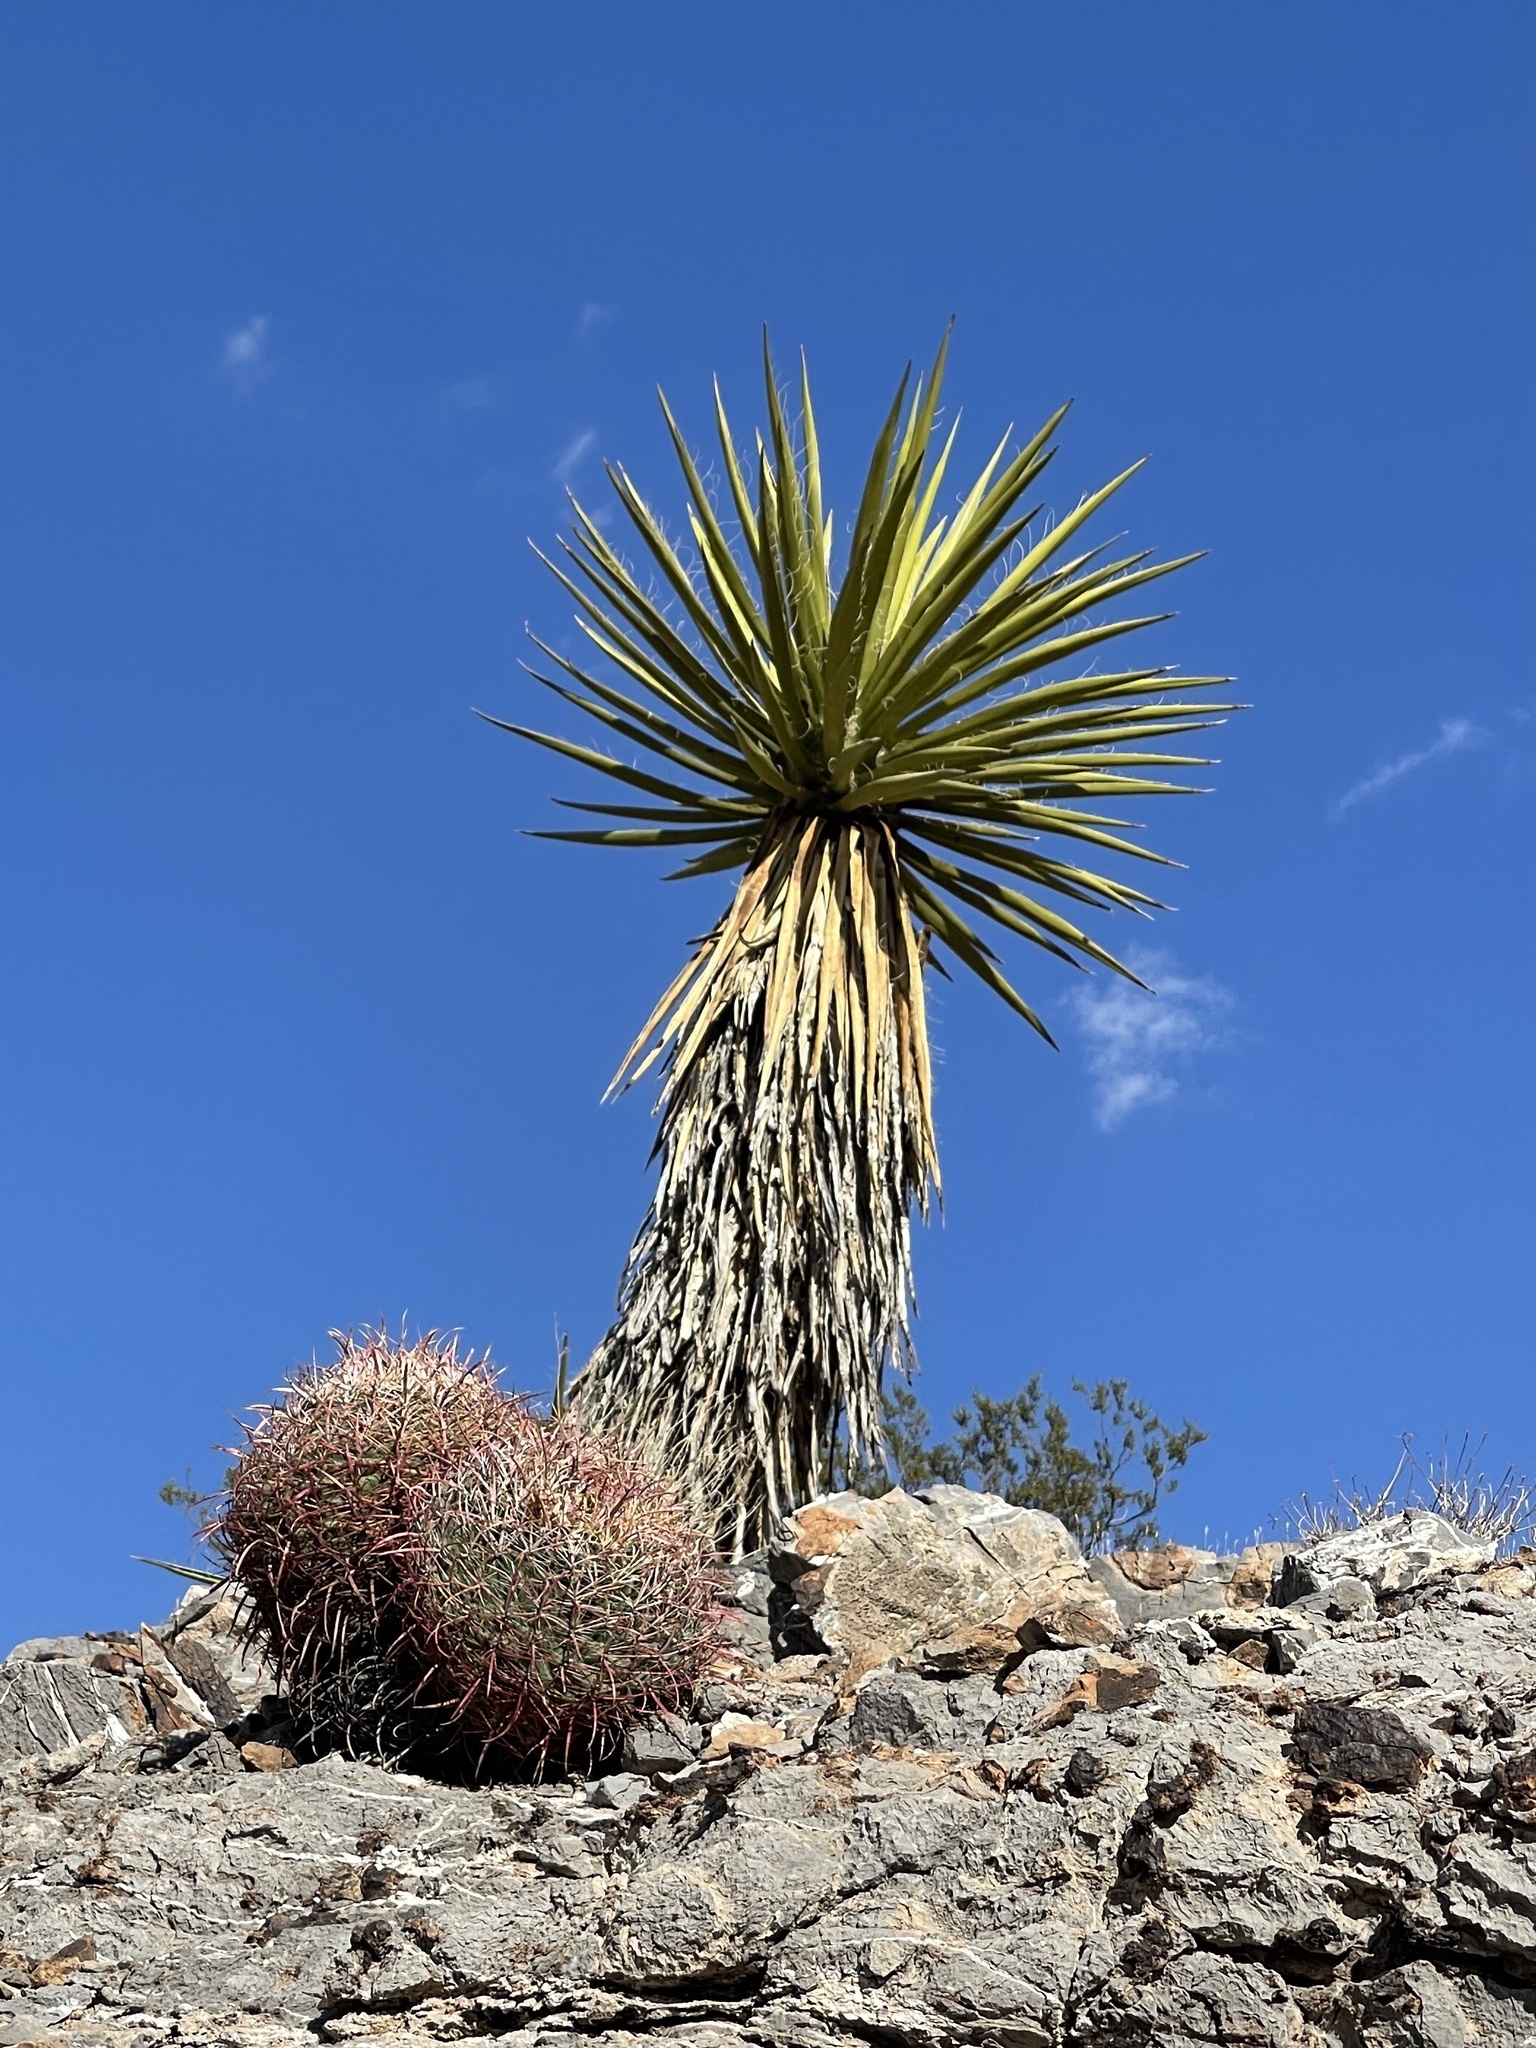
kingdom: Plantae
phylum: Tracheophyta
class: Liliopsida
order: Asparagales
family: Asparagaceae
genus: Yucca
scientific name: Yucca schidigera
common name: Mojave yucca
